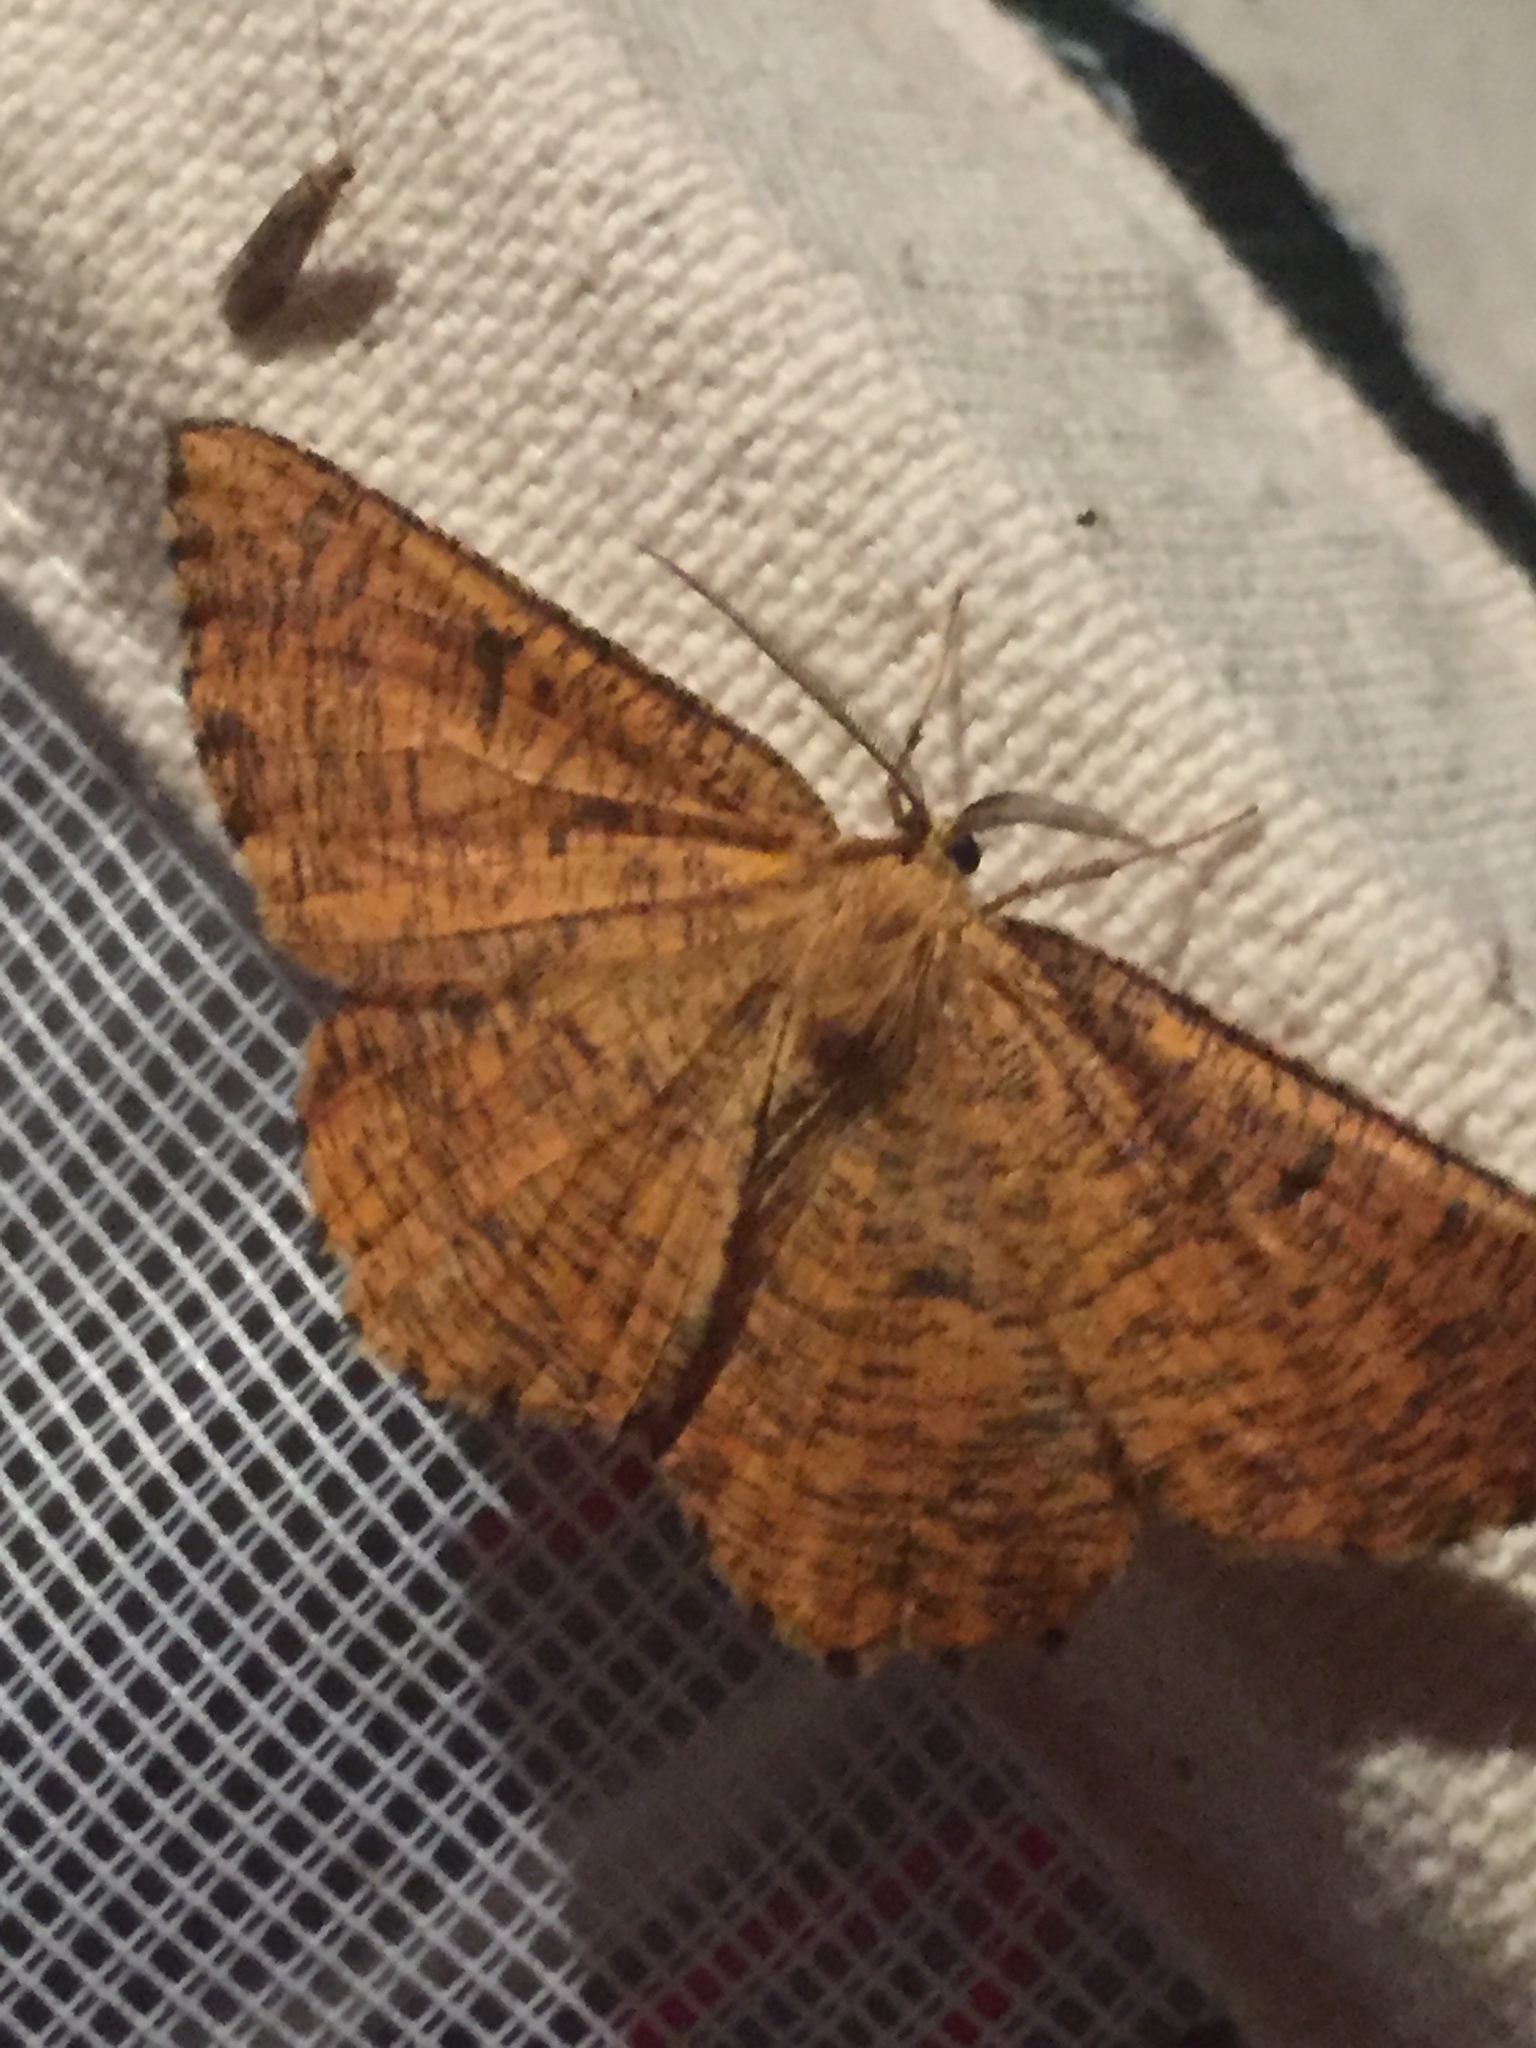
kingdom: Animalia
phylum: Arthropoda
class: Insecta
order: Lepidoptera
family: Geometridae
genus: Angerona
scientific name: Angerona prunaria
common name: Orange moth
